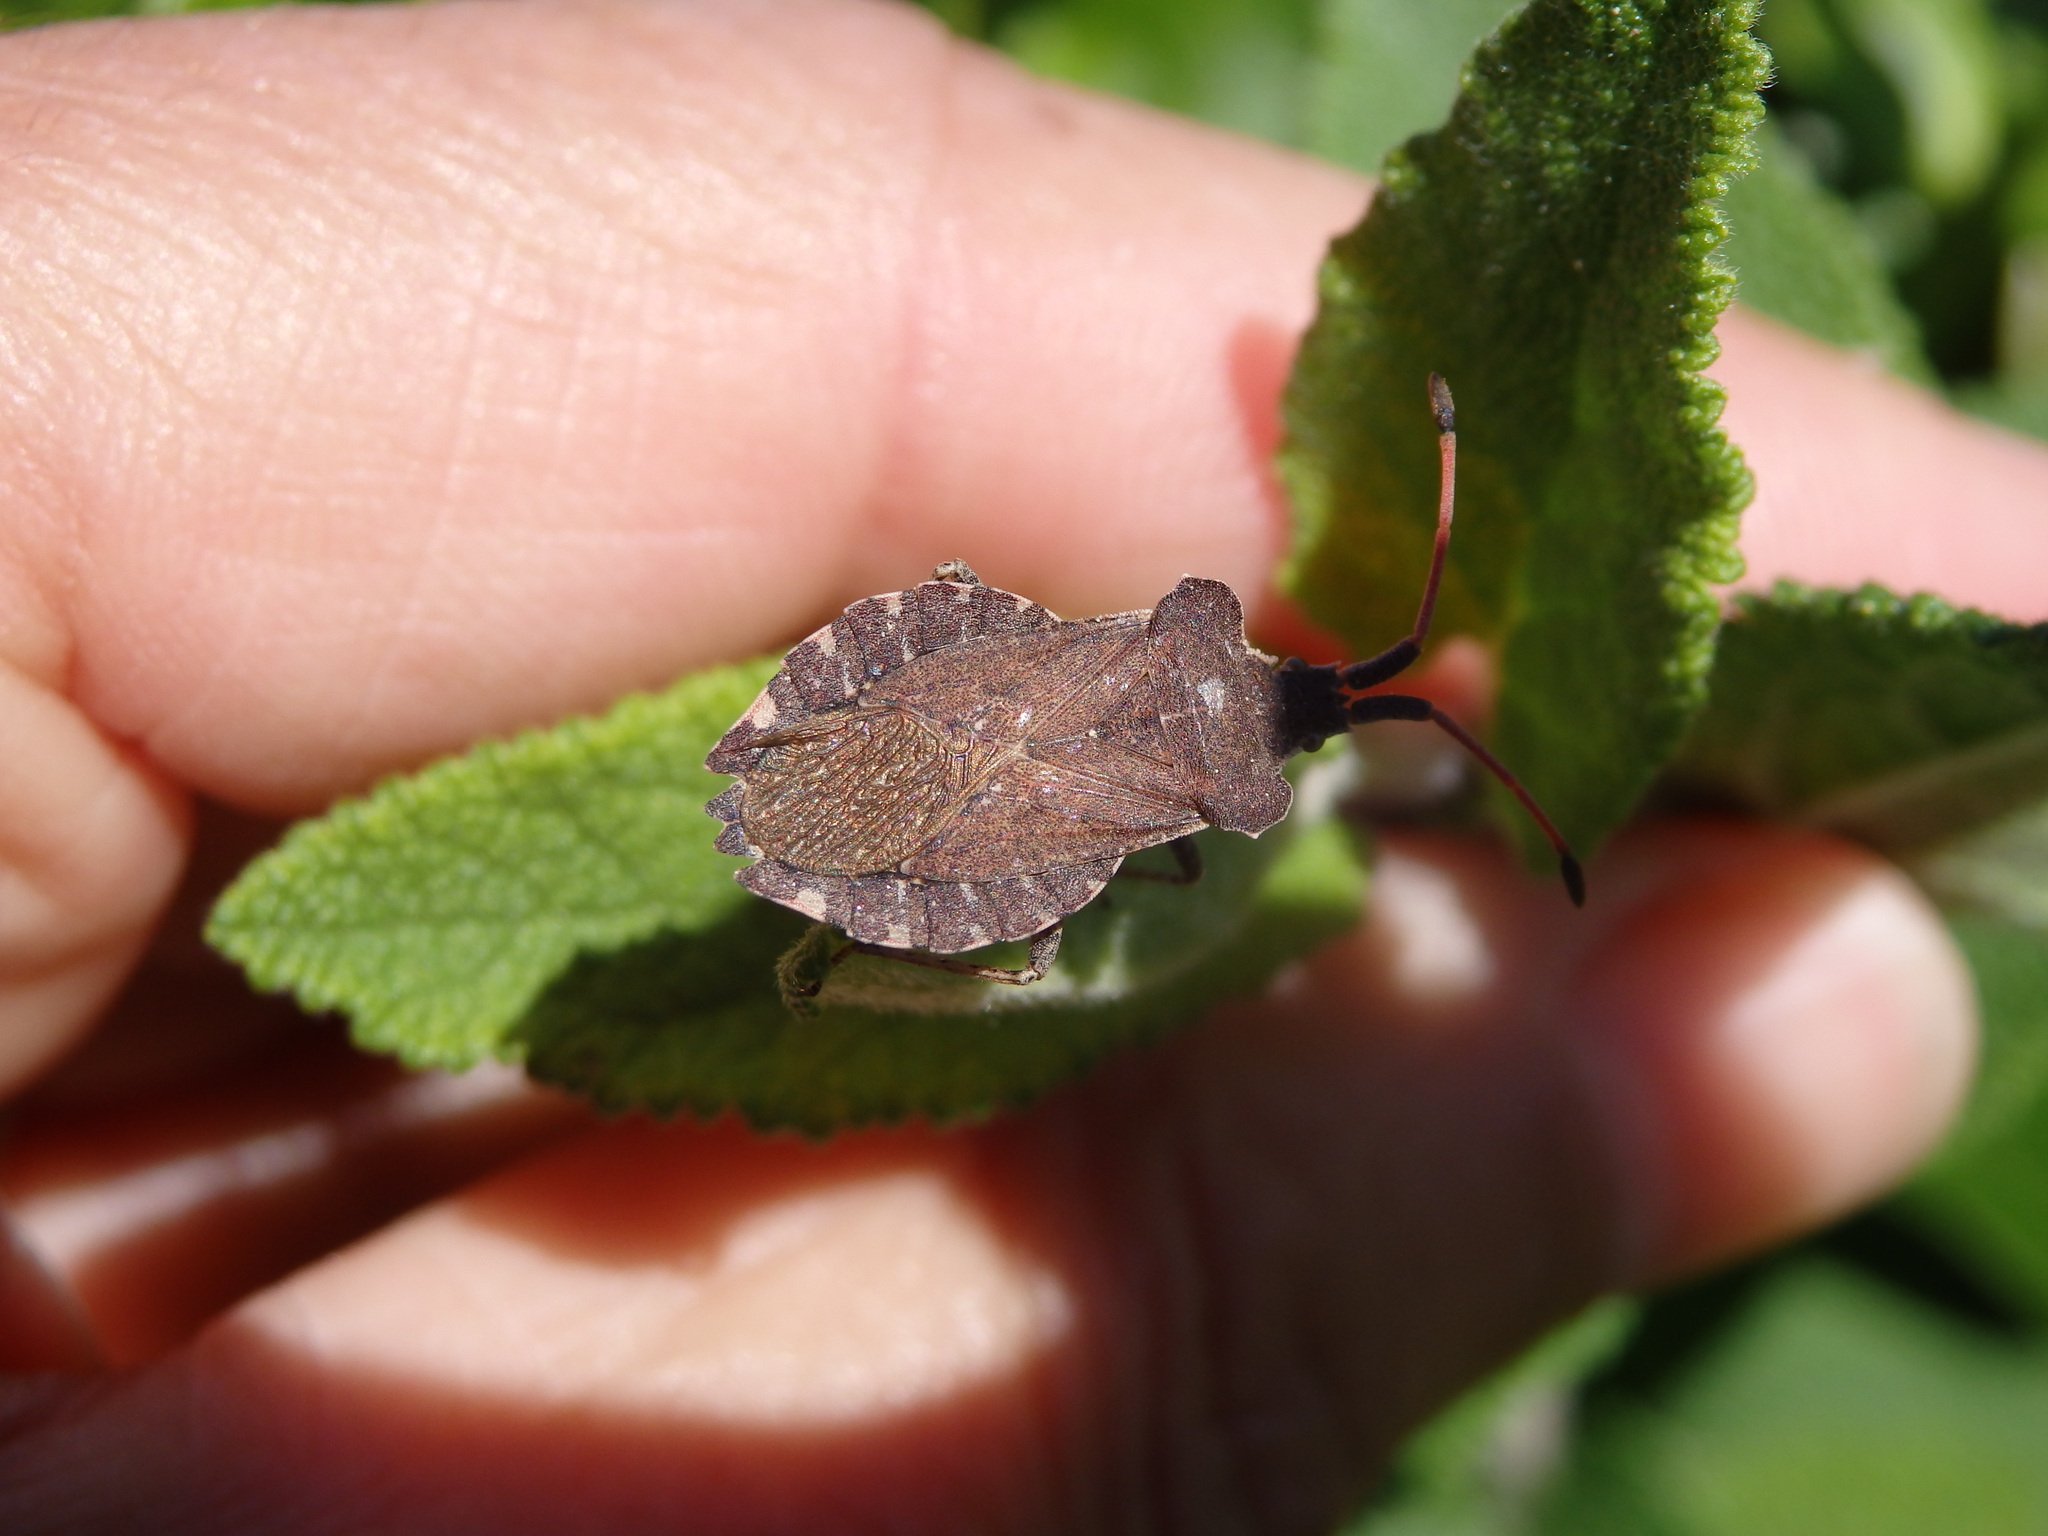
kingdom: Animalia
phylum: Arthropoda
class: Insecta
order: Hemiptera
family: Coreidae
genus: Enoplops
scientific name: Enoplops scapha
